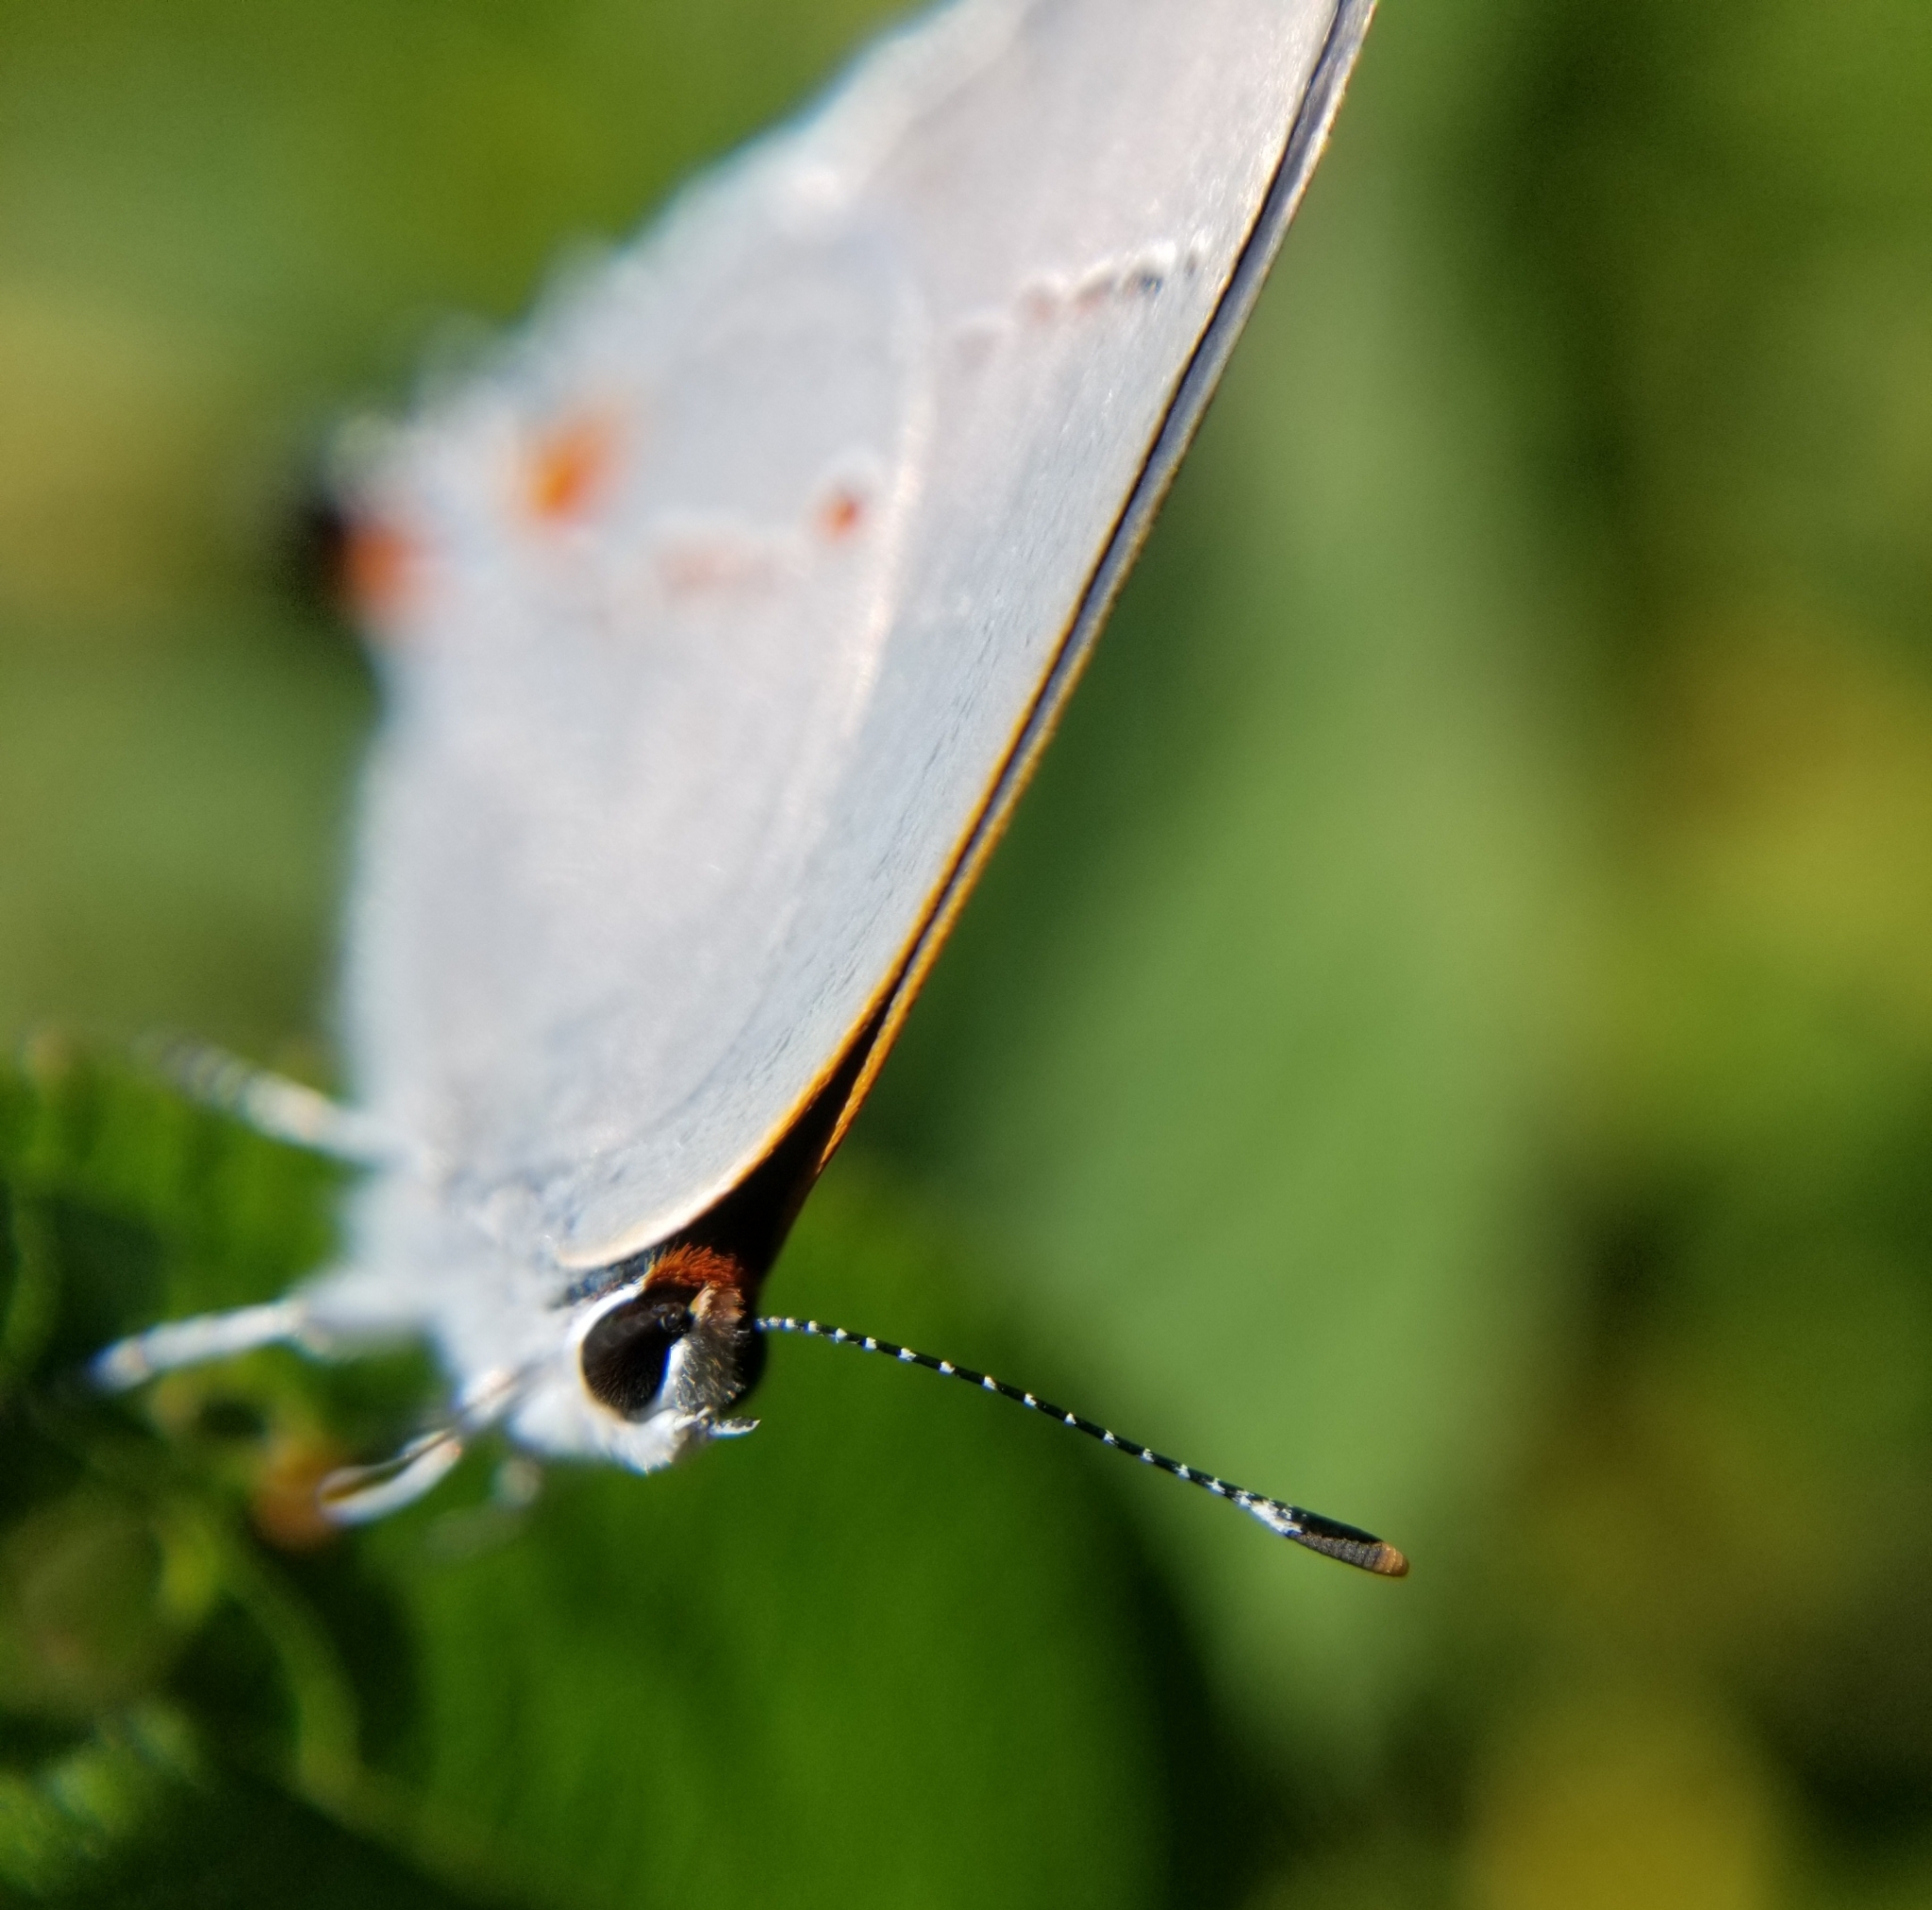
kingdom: Animalia
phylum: Arthropoda
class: Insecta
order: Lepidoptera
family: Lycaenidae
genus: Strymon
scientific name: Strymon melinus
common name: Gray hairstreak
